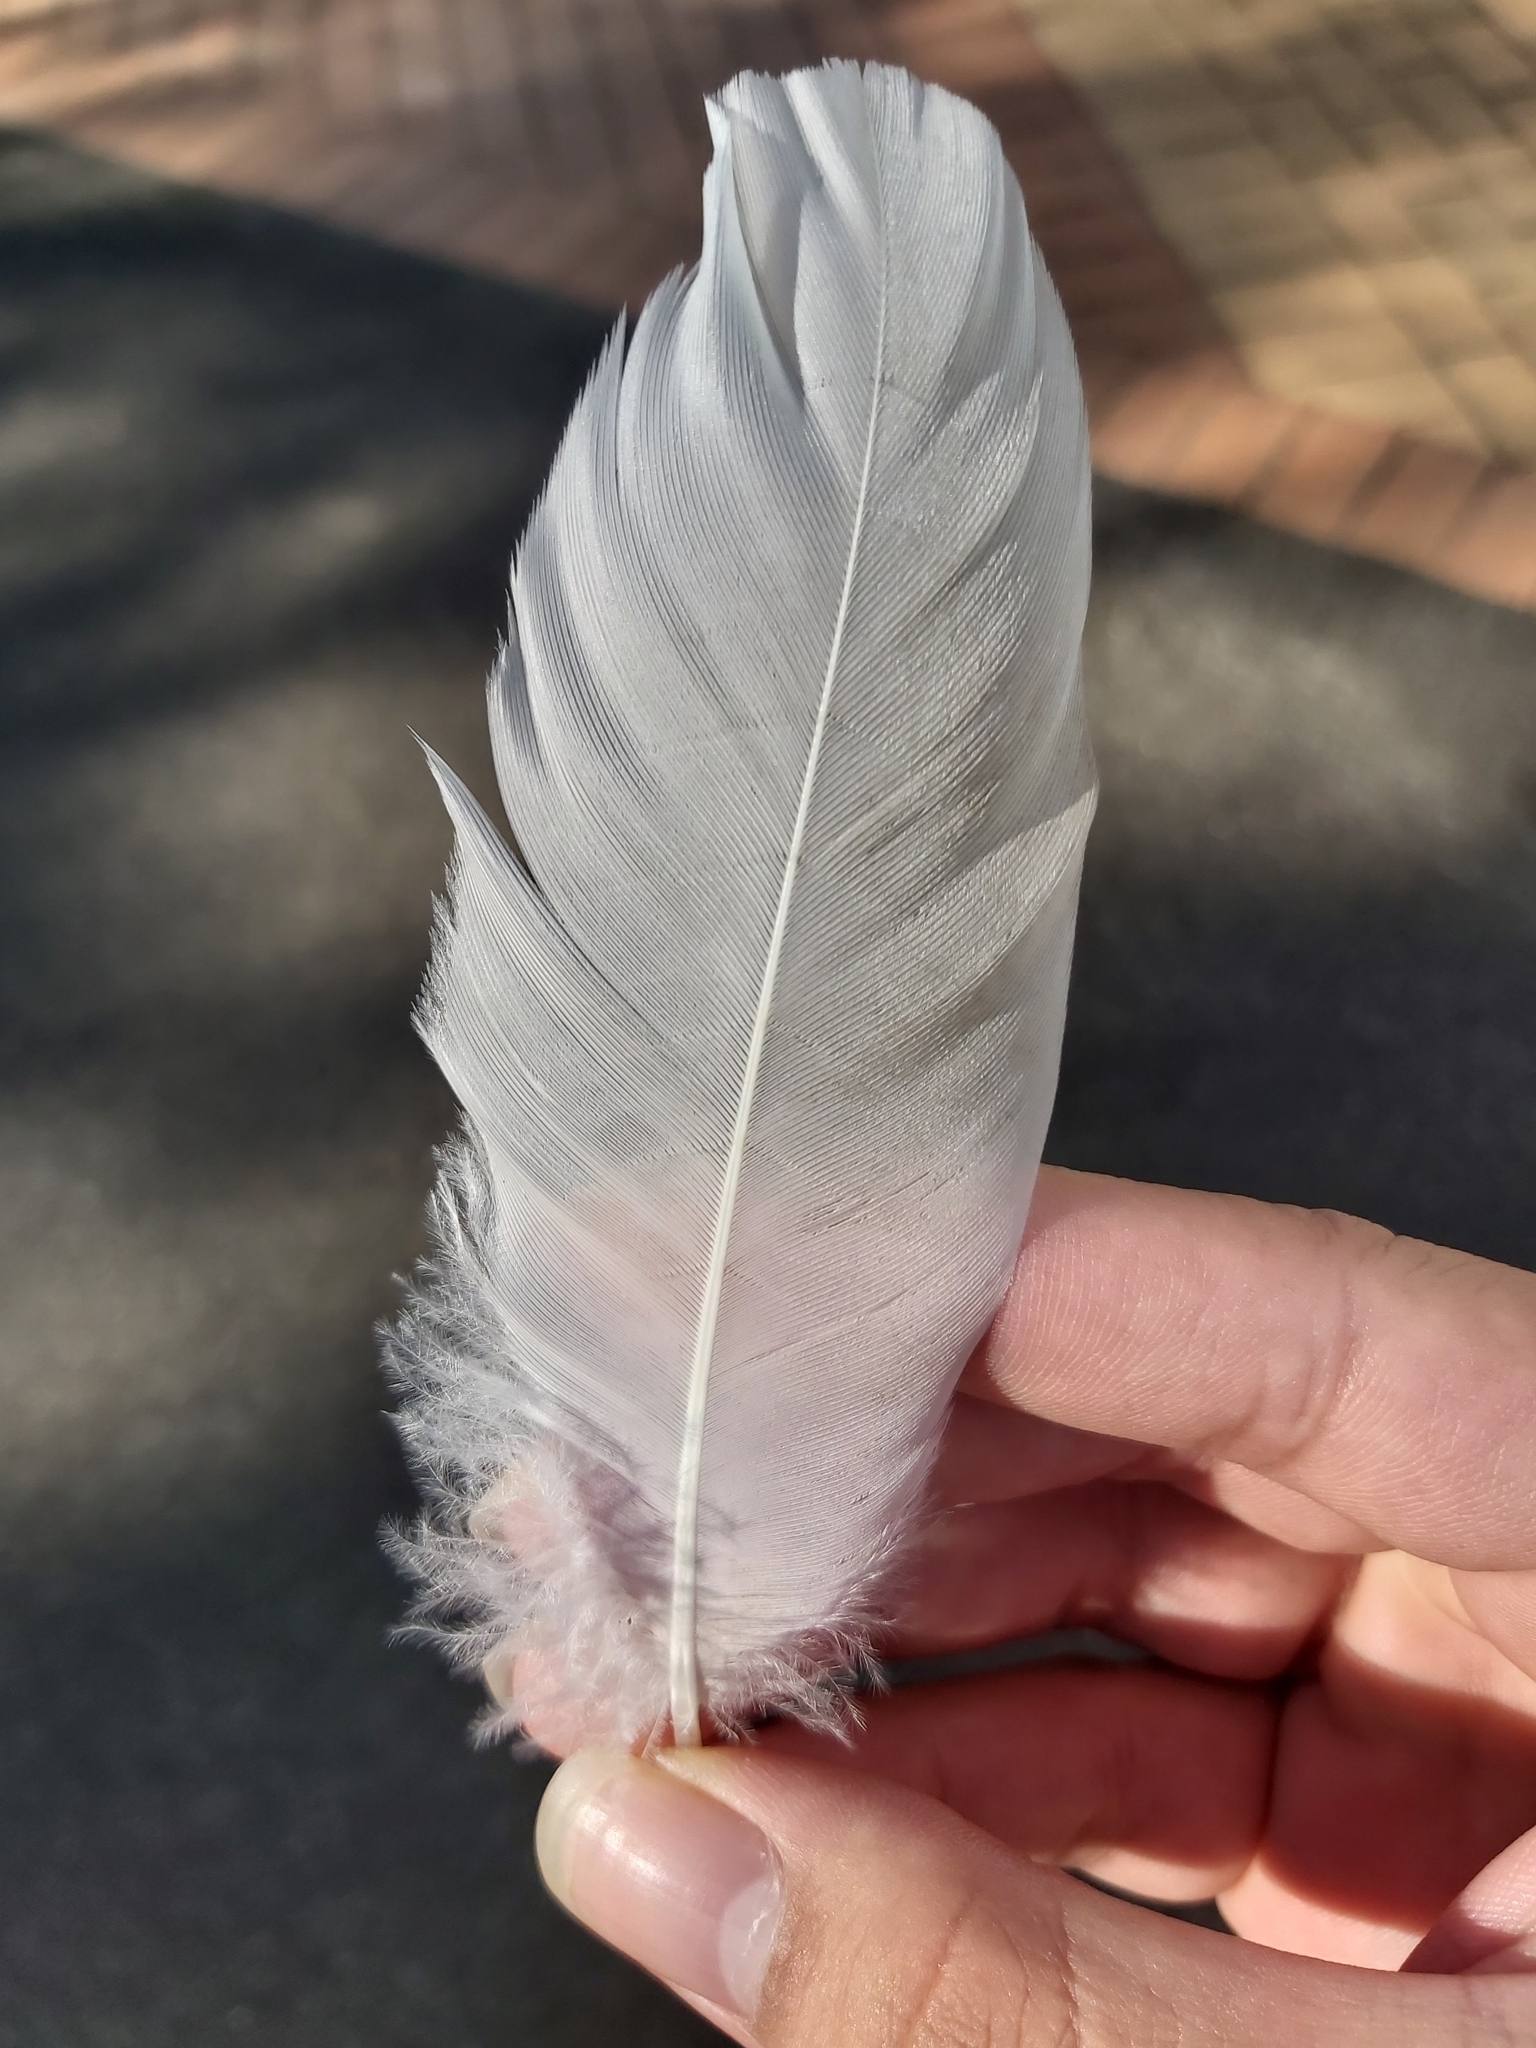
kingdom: Animalia
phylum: Chordata
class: Aves
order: Pelecaniformes
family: Threskiornithidae
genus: Threskiornis
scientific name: Threskiornis molucca
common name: Australian white ibis
